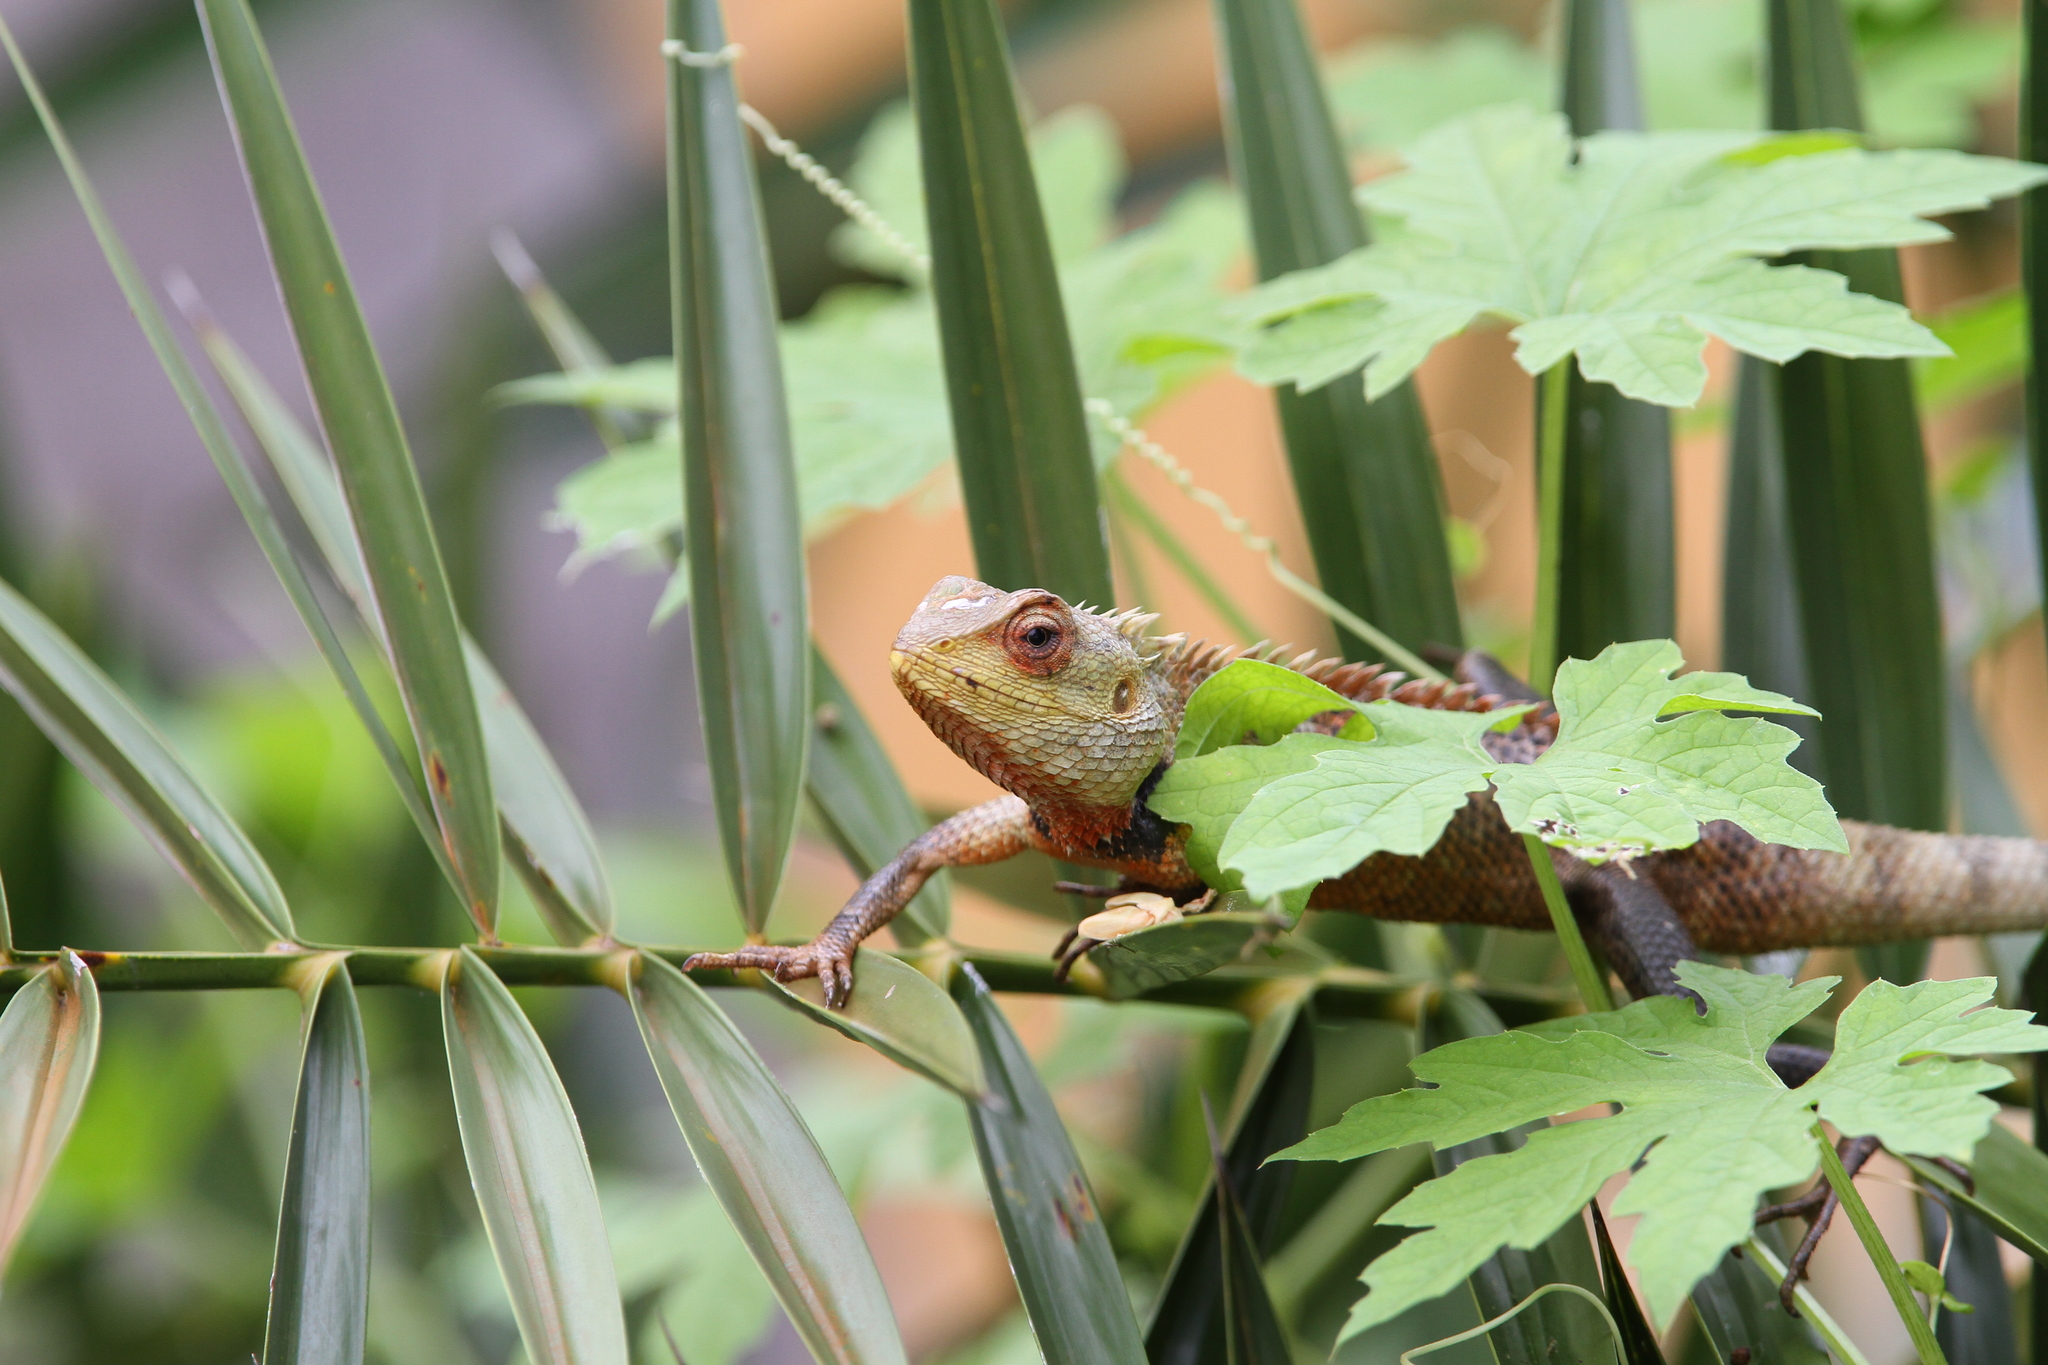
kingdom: Animalia
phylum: Chordata
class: Squamata
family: Agamidae
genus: Calotes
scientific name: Calotes versicolor
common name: Oriental garden lizard
